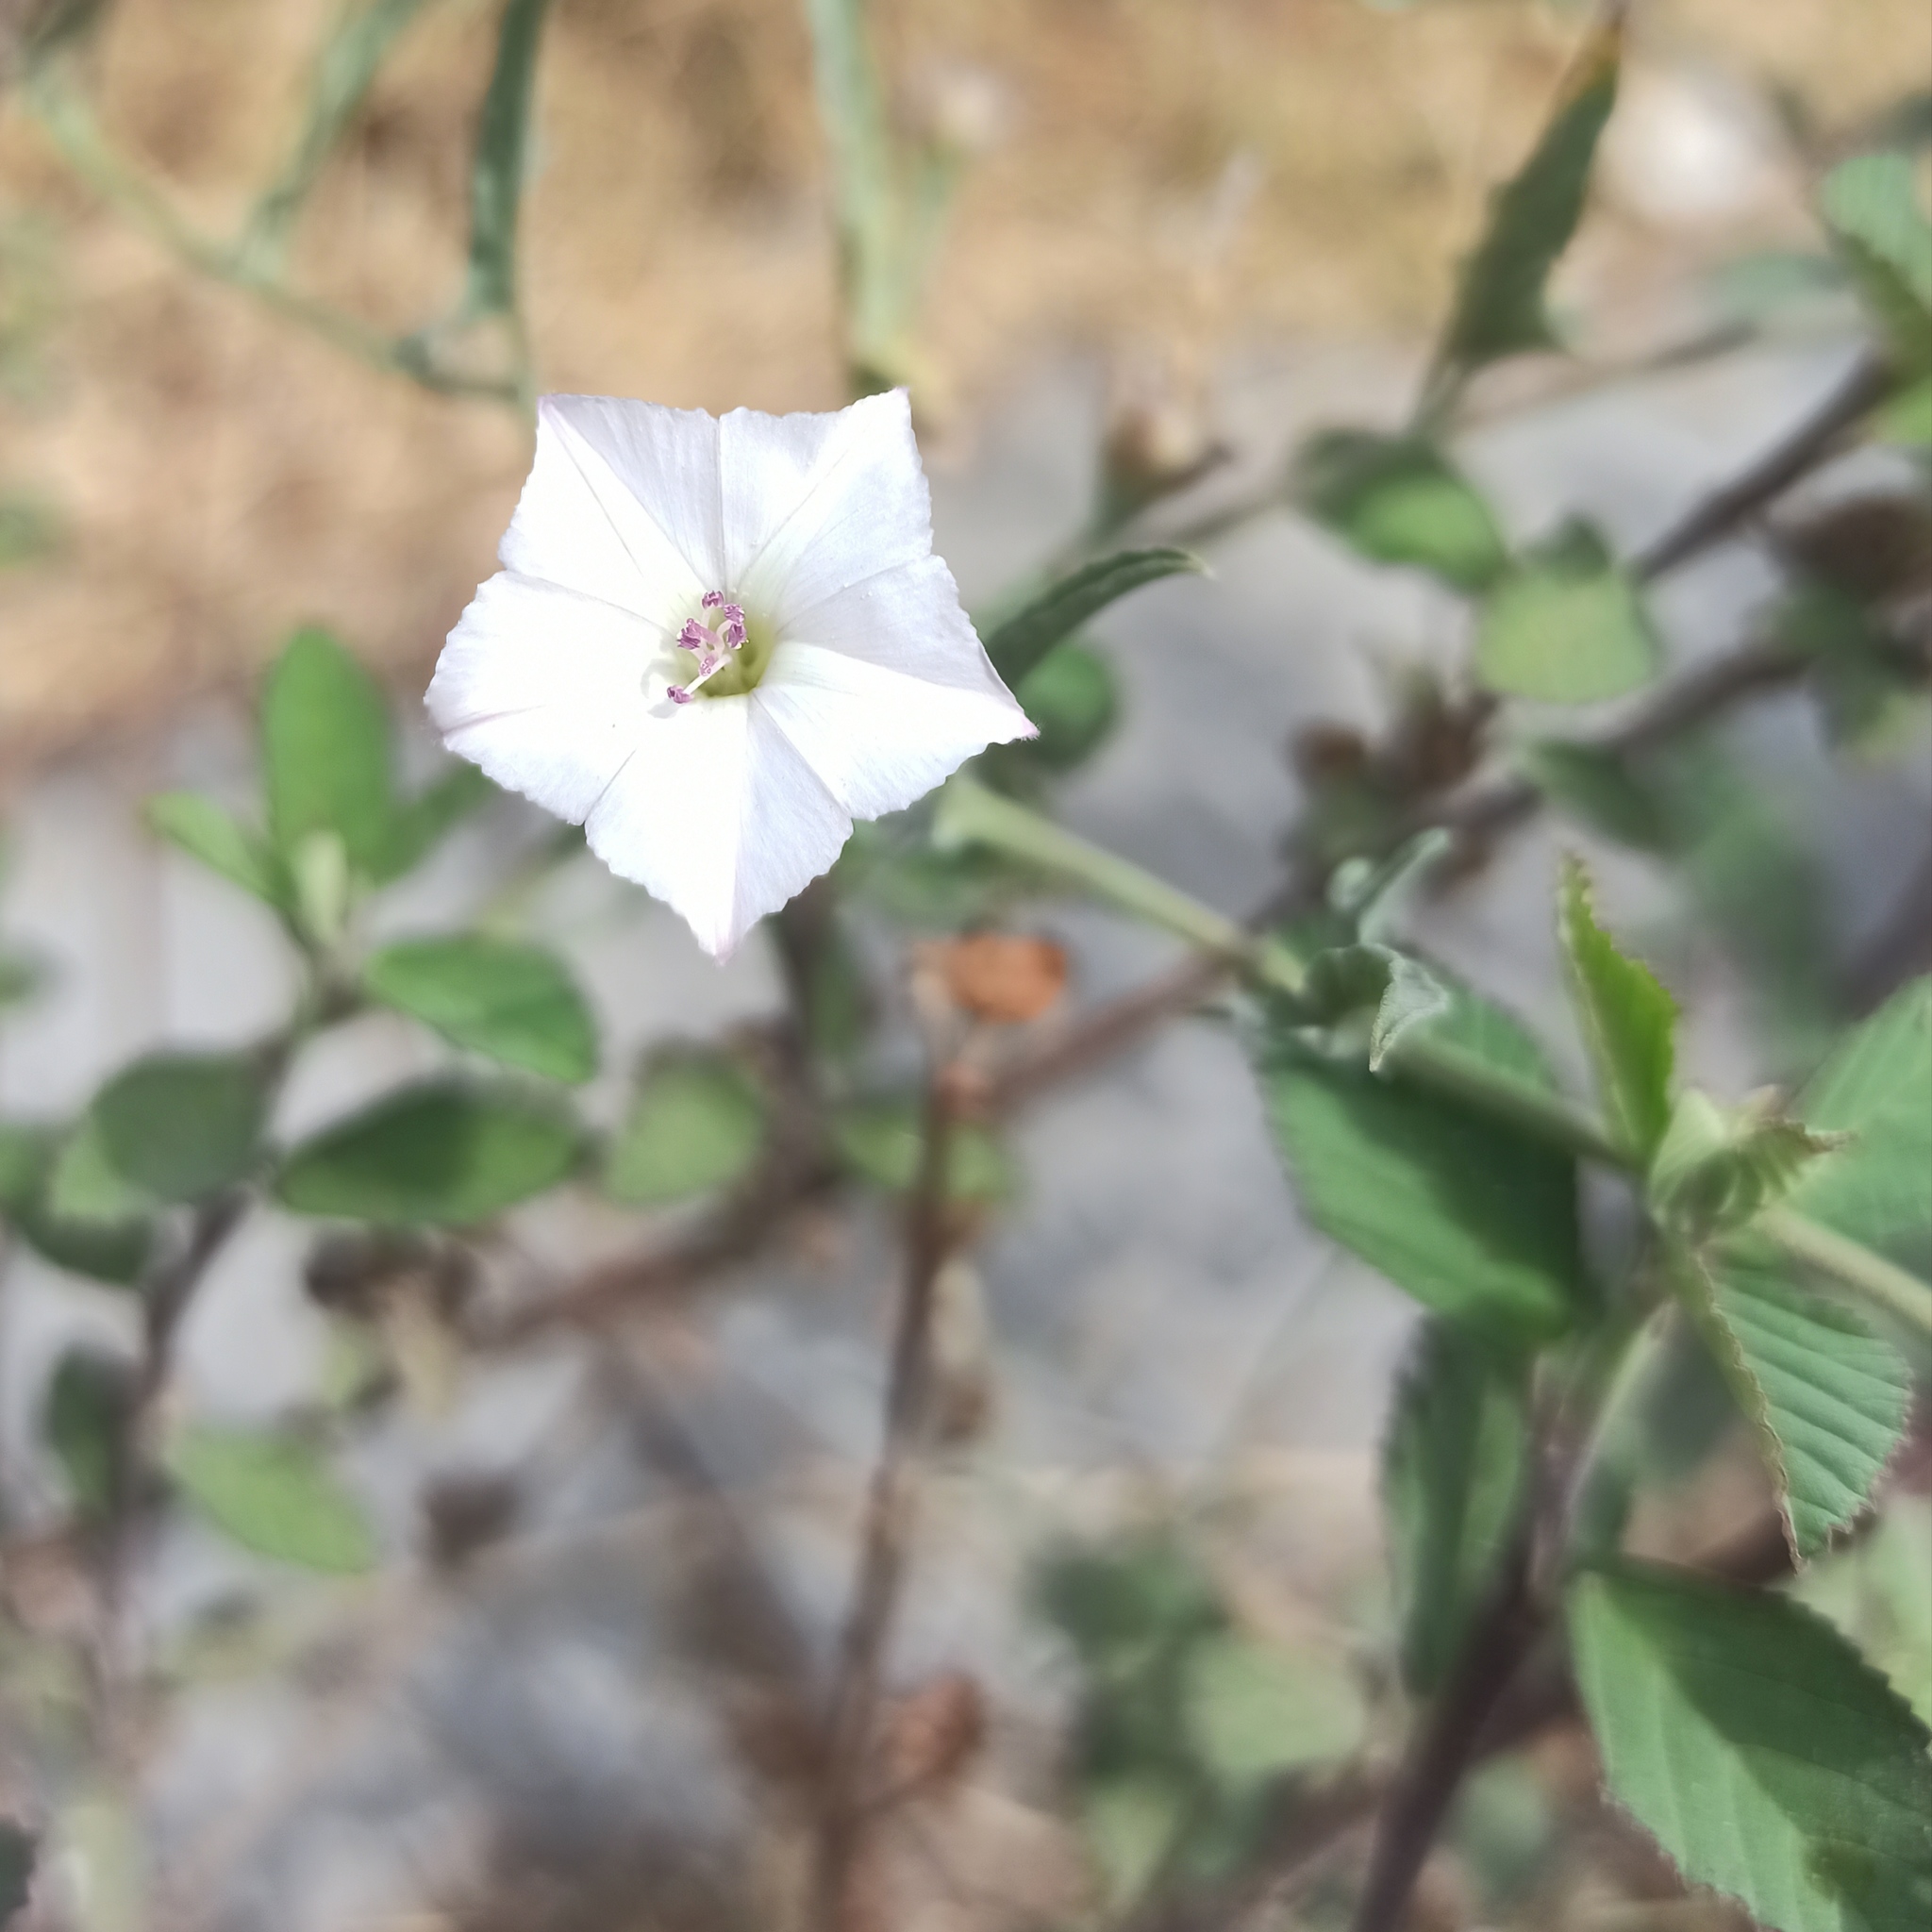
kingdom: Plantae
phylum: Tracheophyta
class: Magnoliopsida
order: Solanales
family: Convolvulaceae
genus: Convolvulus
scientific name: Convolvulus equitans
